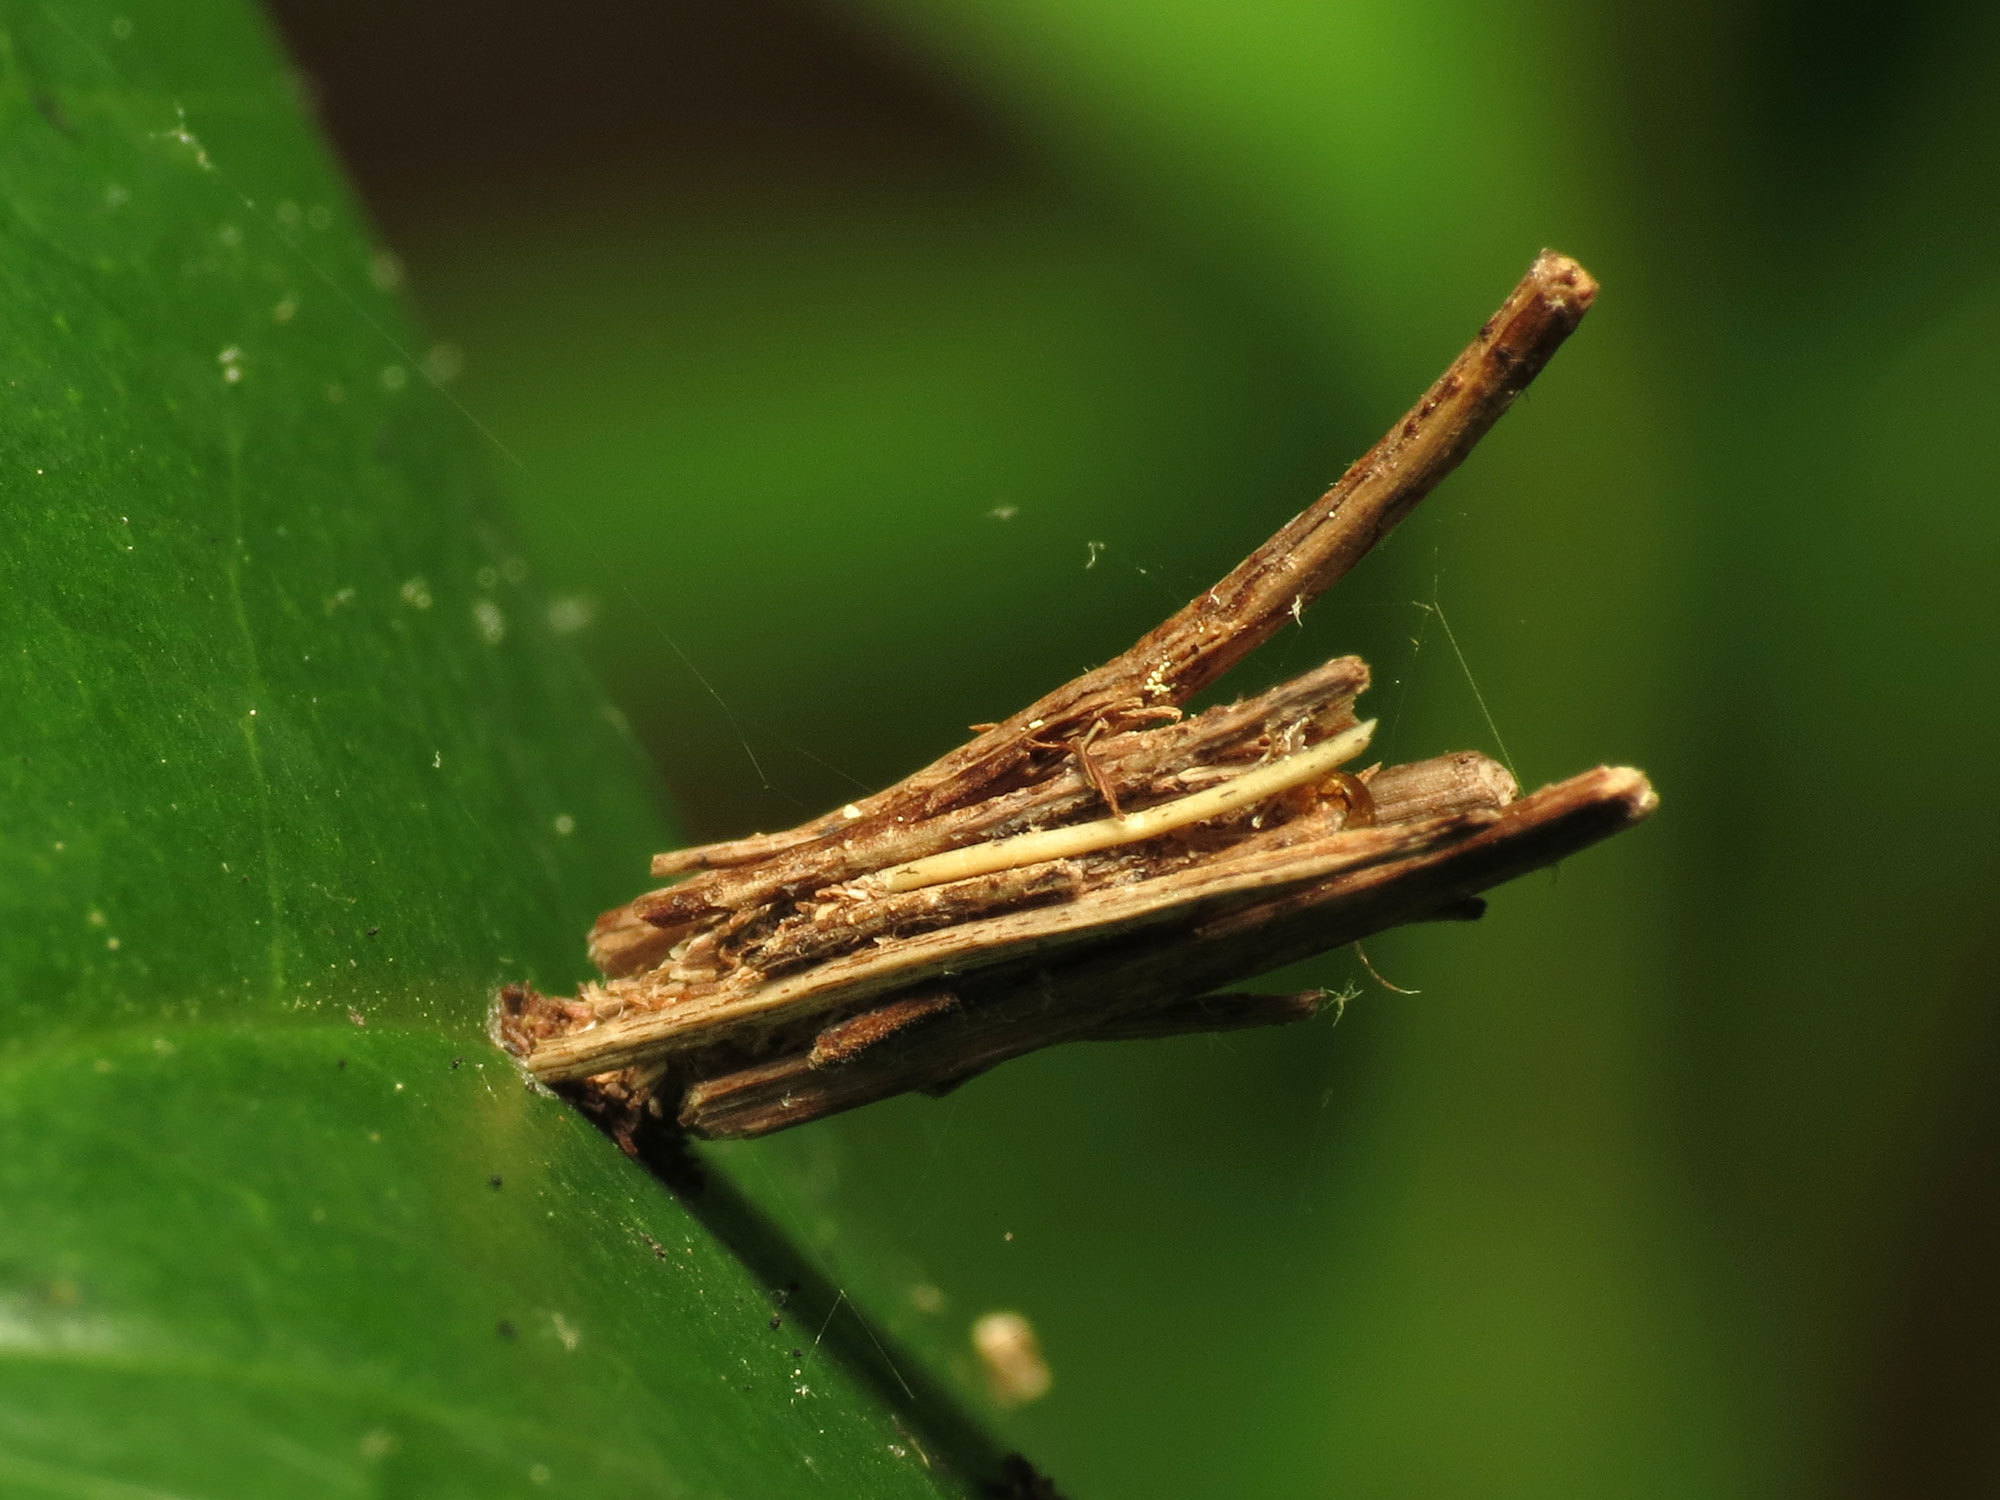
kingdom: Animalia
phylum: Arthropoda
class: Insecta
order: Lepidoptera
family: Psychidae
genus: Psyche
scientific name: Psyche casta
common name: Common sweep
